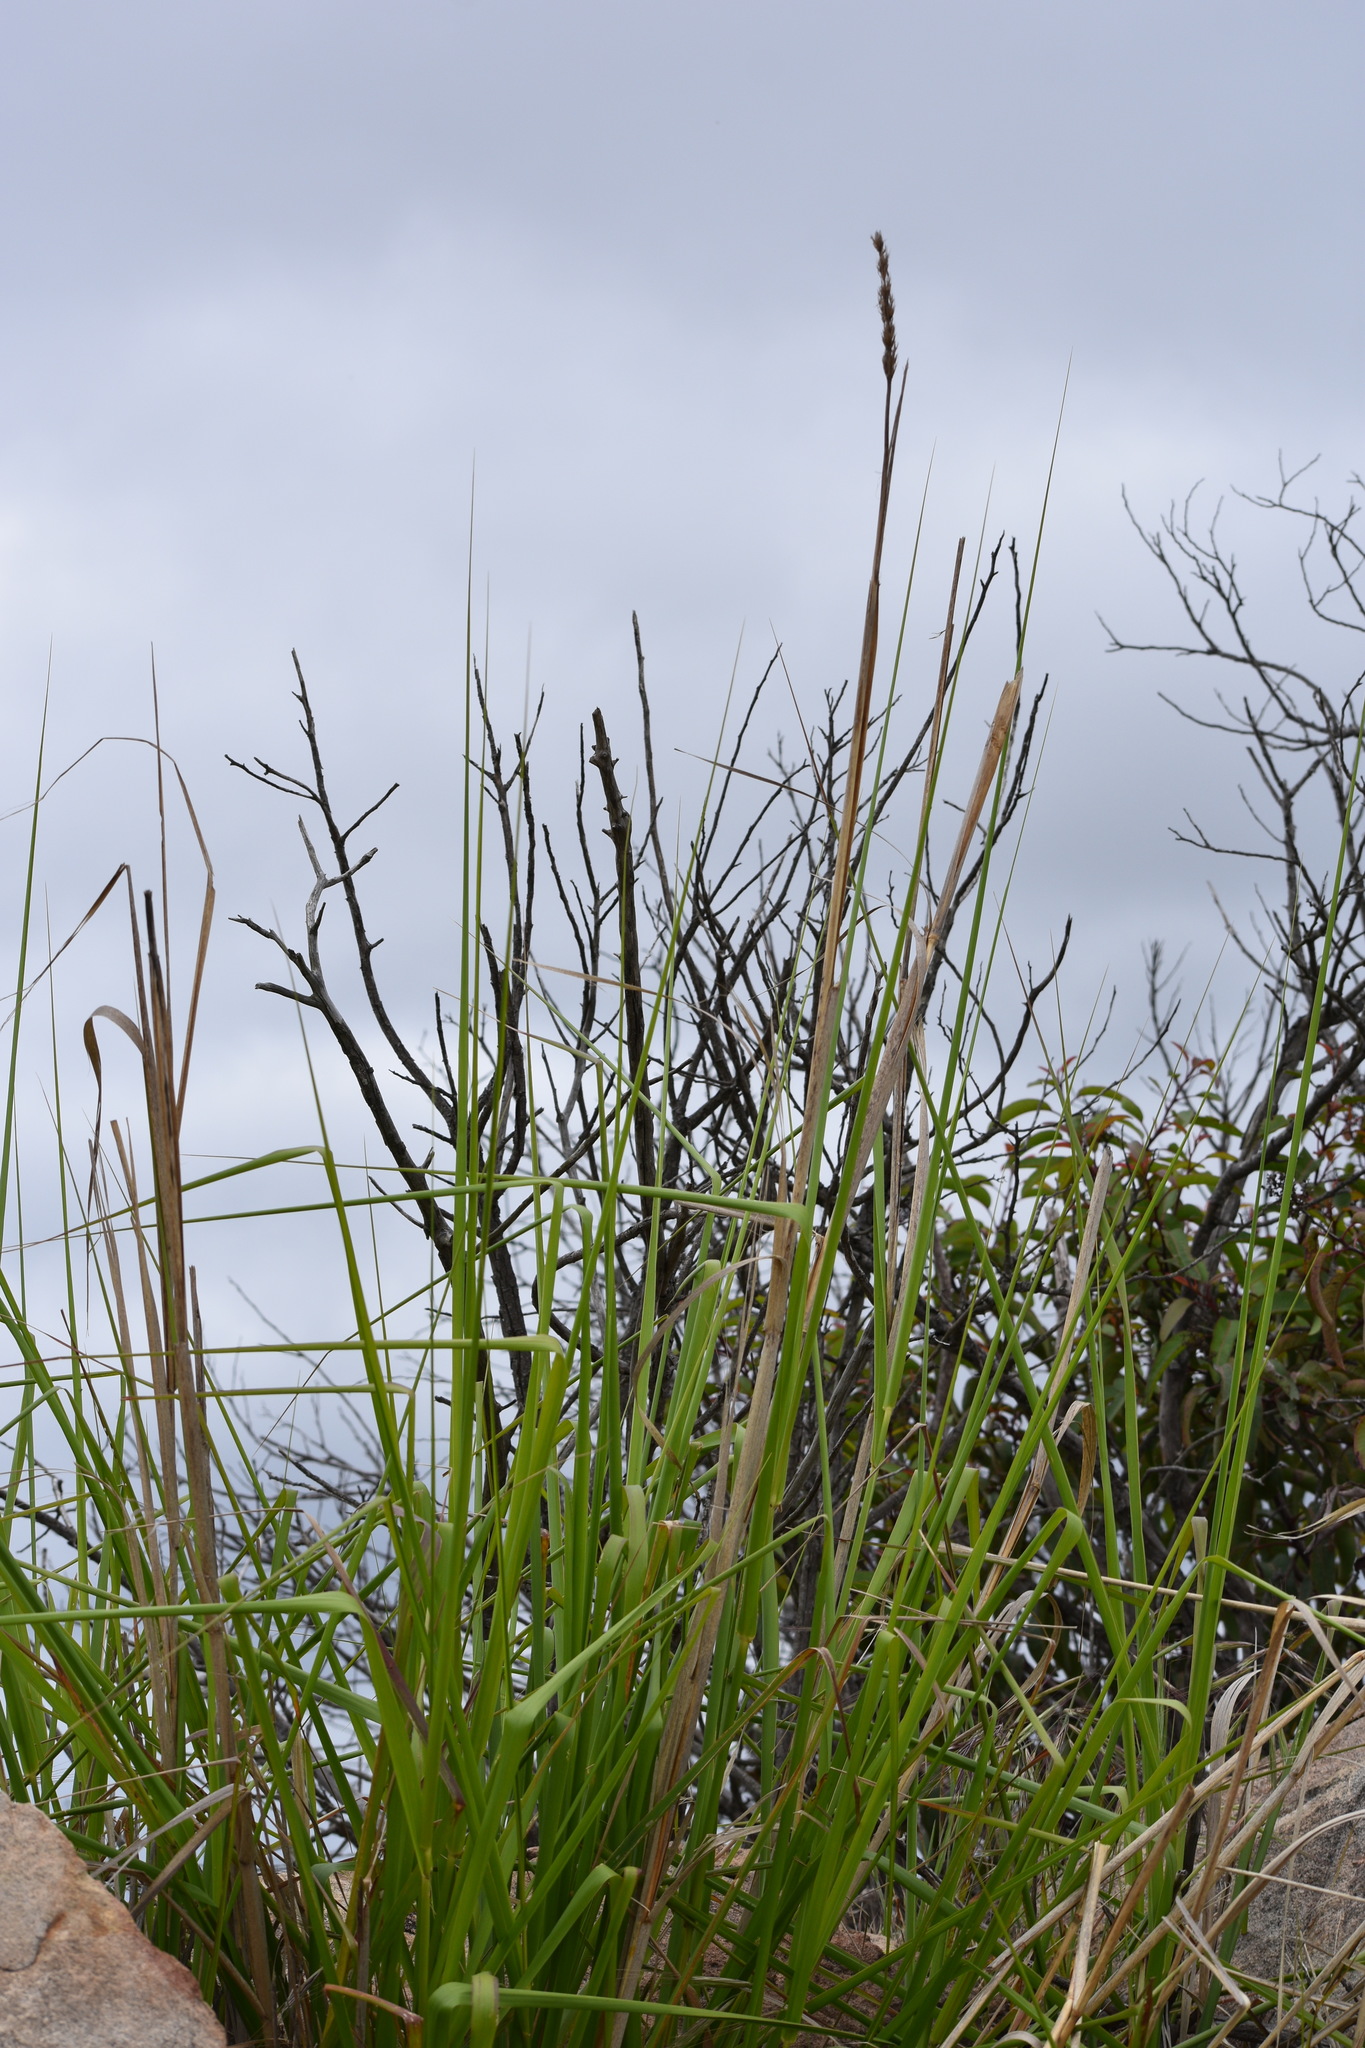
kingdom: Plantae
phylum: Tracheophyta
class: Liliopsida
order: Poales
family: Poaceae
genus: Leymus
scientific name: Leymus condensatus
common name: Giant wild rye
